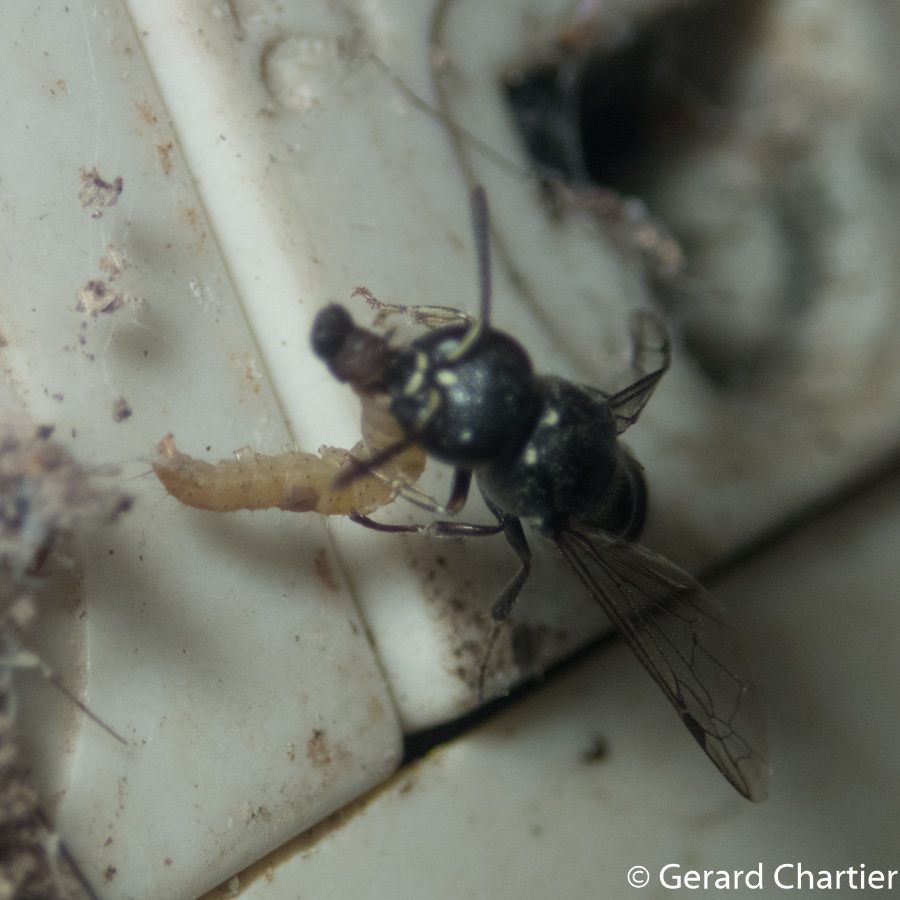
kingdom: Animalia
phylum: Arthropoda
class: Insecta
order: Hymenoptera
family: Eumenidae
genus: Subancistrocerus
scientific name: Subancistrocerus sichelii
